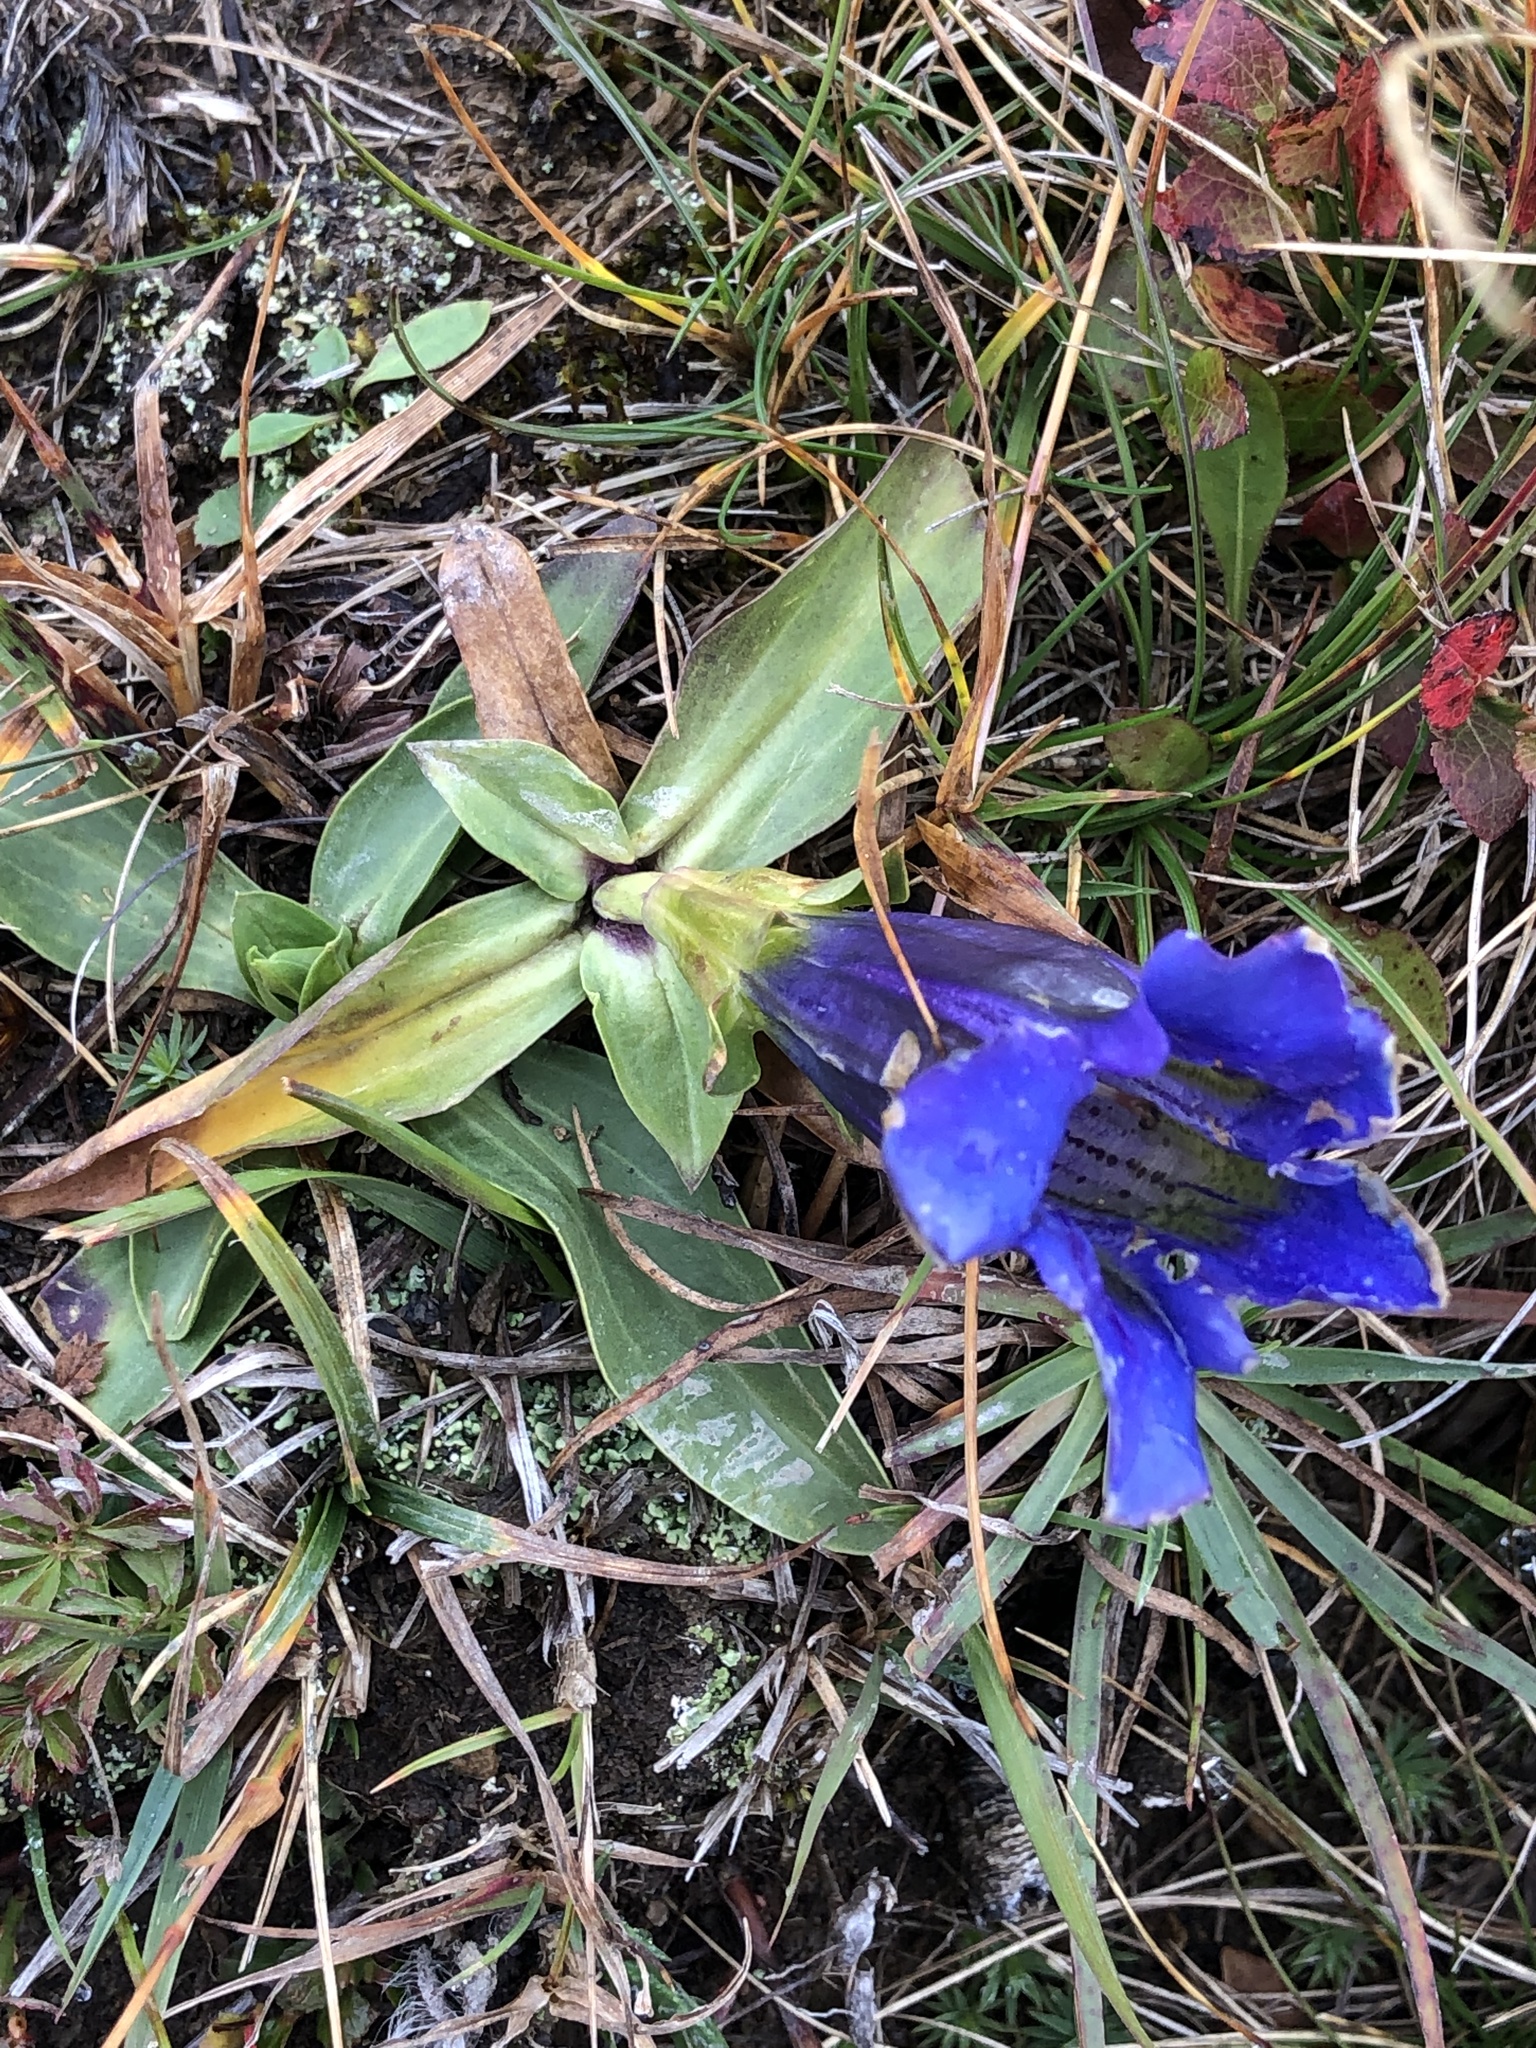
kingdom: Plantae
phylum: Tracheophyta
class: Magnoliopsida
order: Gentianales
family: Gentianaceae
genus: Gentiana
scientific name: Gentiana acaulis
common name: Trumpet gentian
